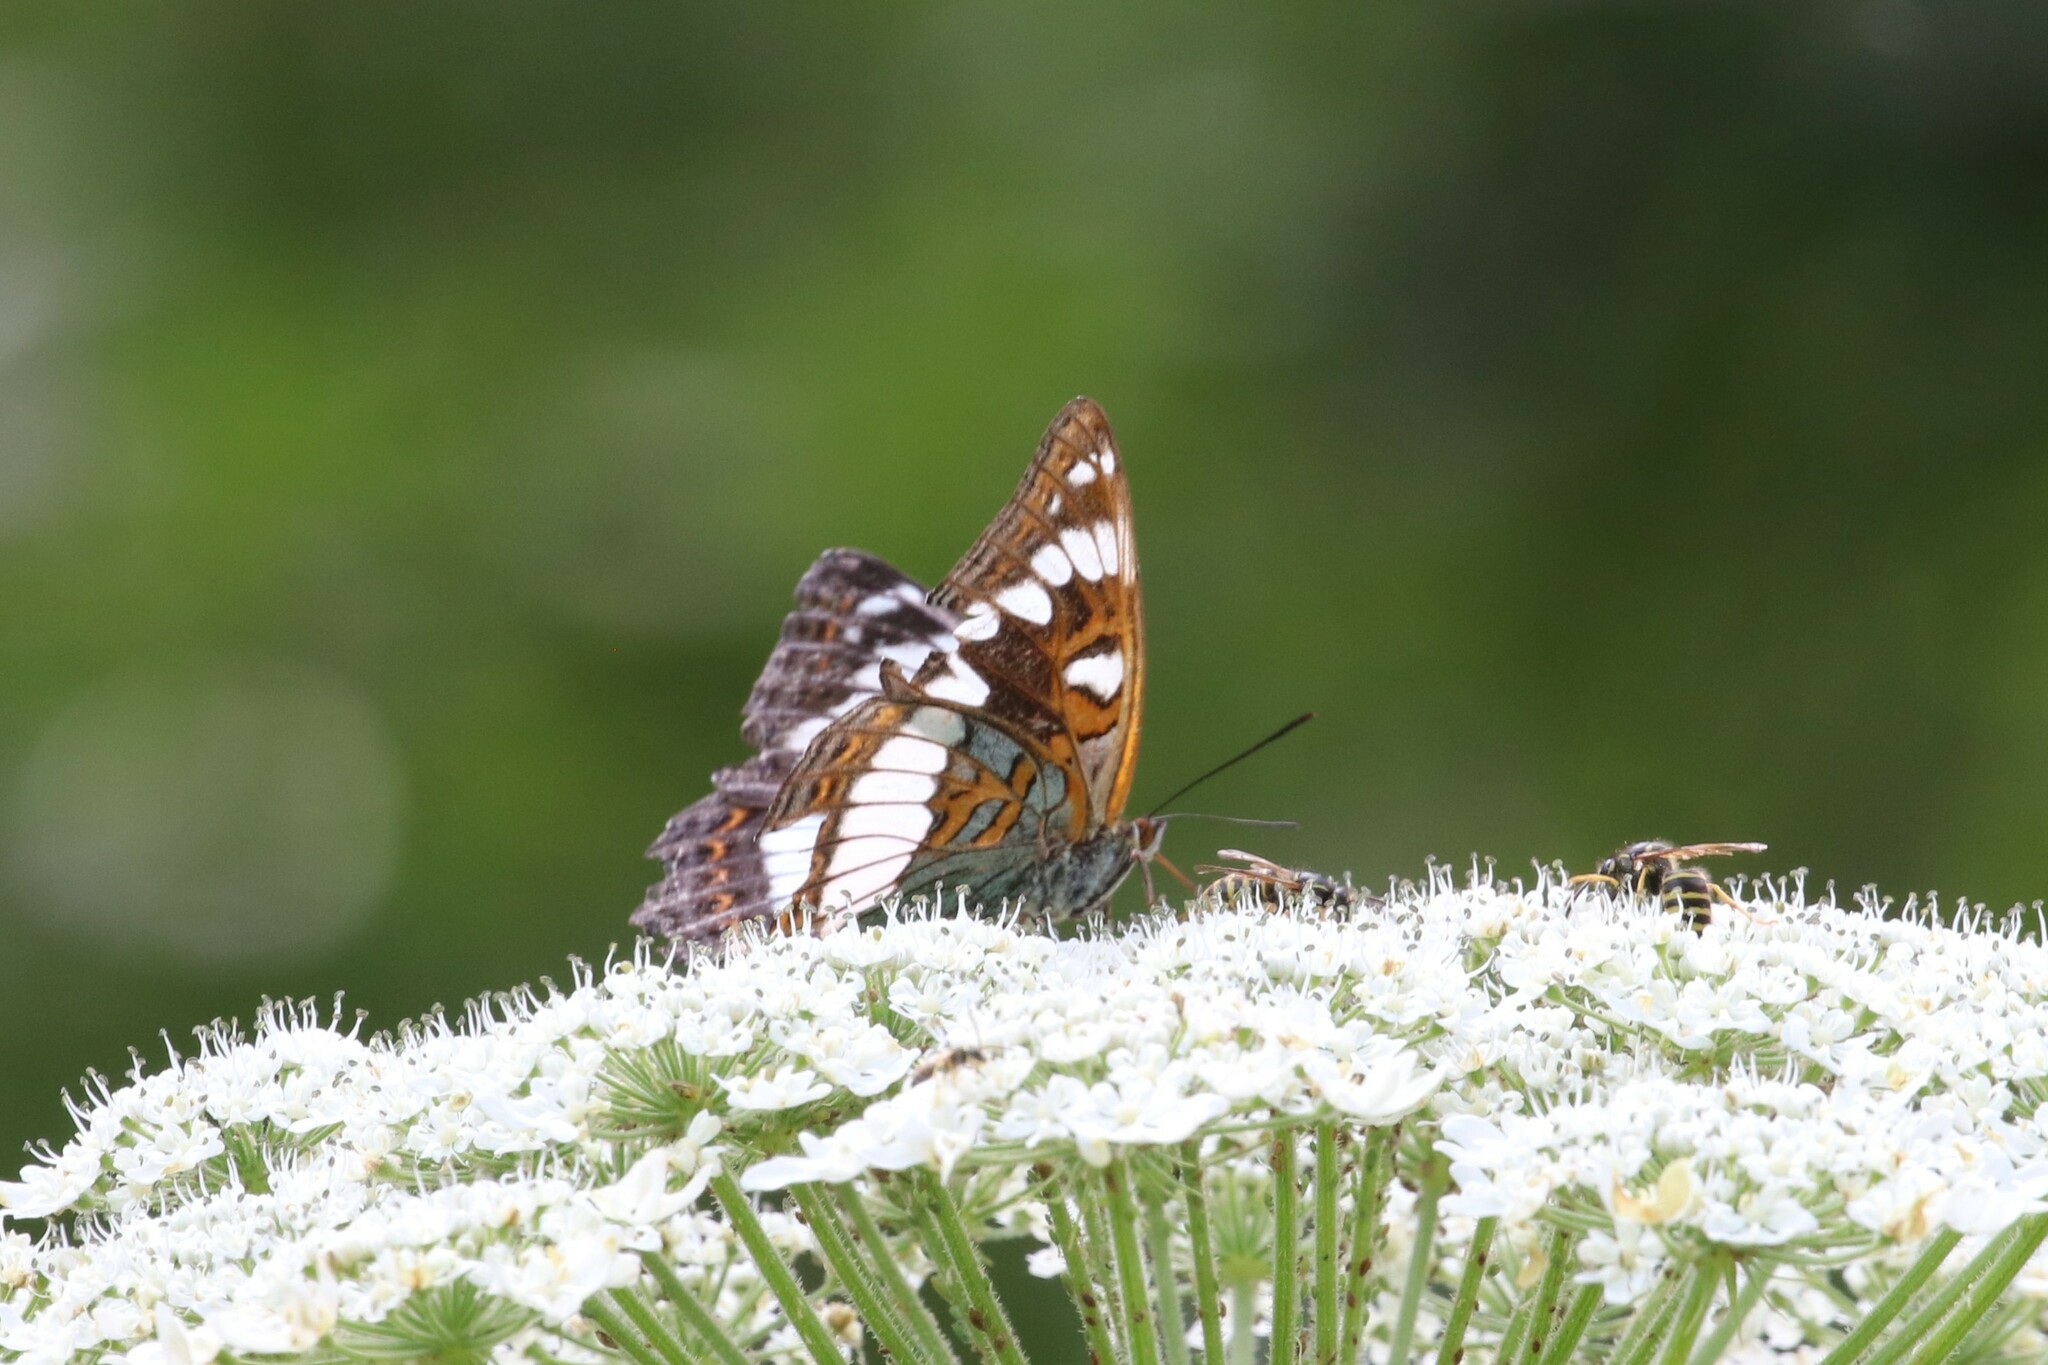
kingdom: Animalia
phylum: Arthropoda
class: Insecta
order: Lepidoptera
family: Nymphalidae
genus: Limenitis
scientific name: Limenitis populi
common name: Poplar admiral
